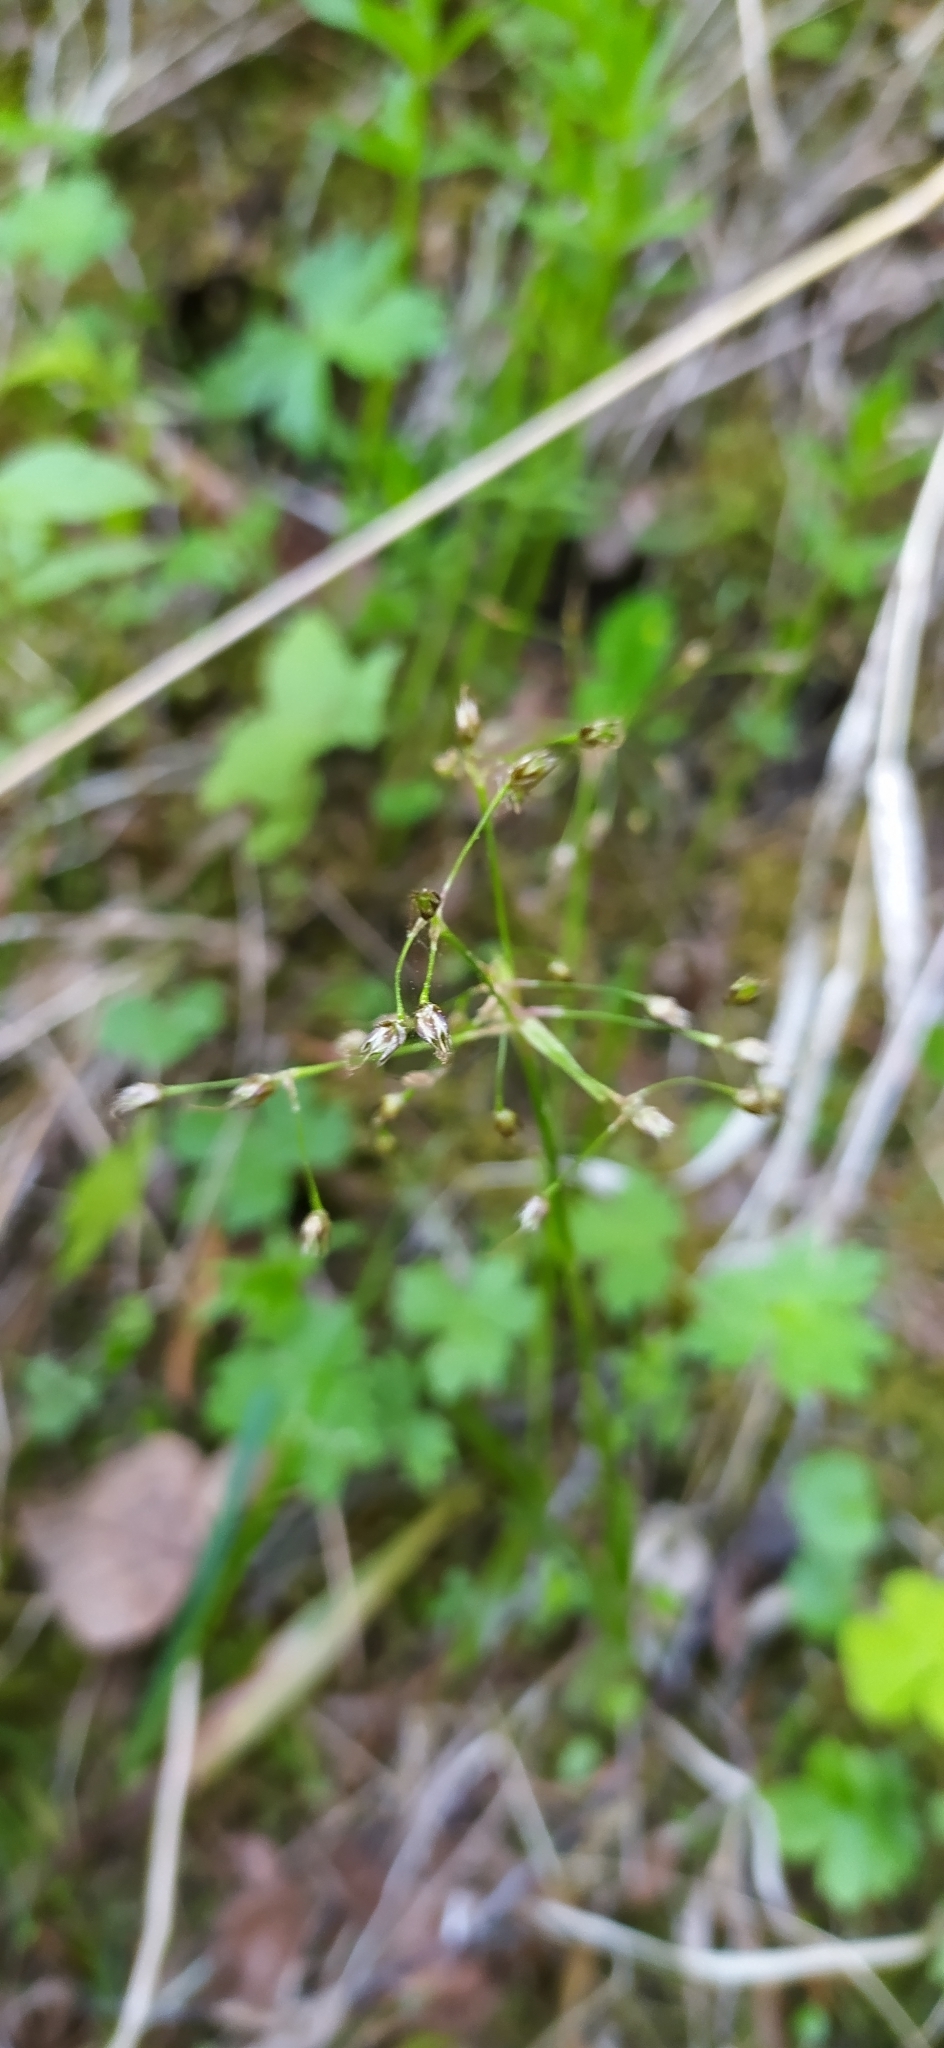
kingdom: Plantae
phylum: Tracheophyta
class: Liliopsida
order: Poales
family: Juncaceae
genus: Luzula
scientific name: Luzula pilosa
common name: Hairy wood-rush
